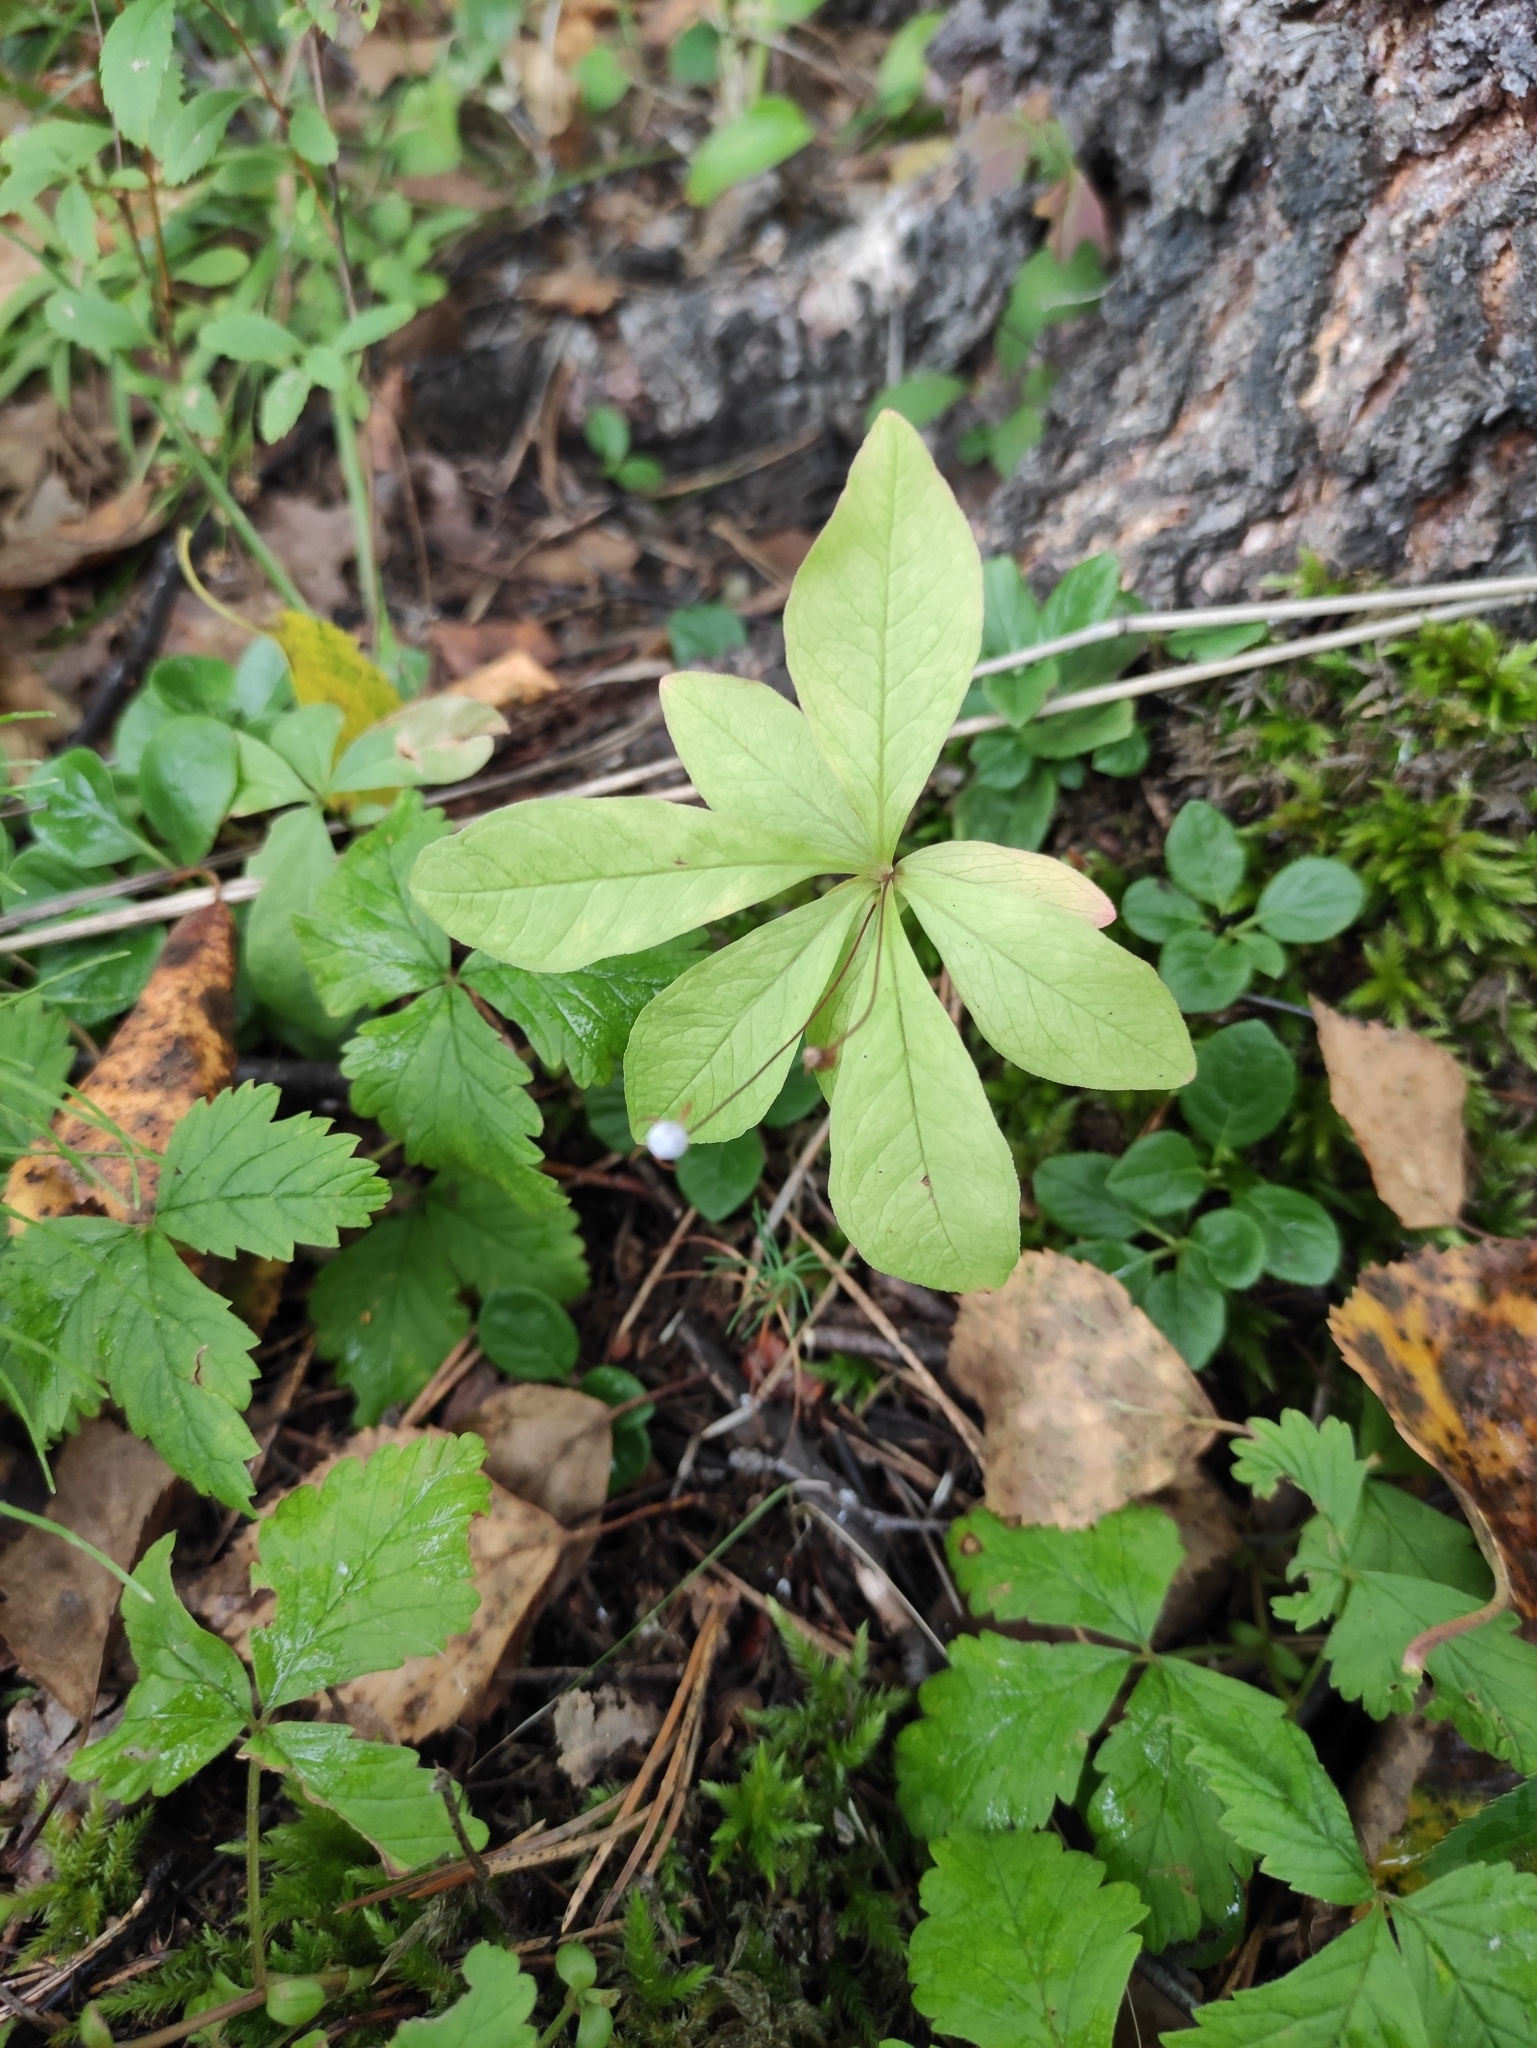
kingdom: Plantae
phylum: Tracheophyta
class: Magnoliopsida
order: Ericales
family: Primulaceae
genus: Lysimachia
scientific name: Lysimachia europaea
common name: Arctic starflower
